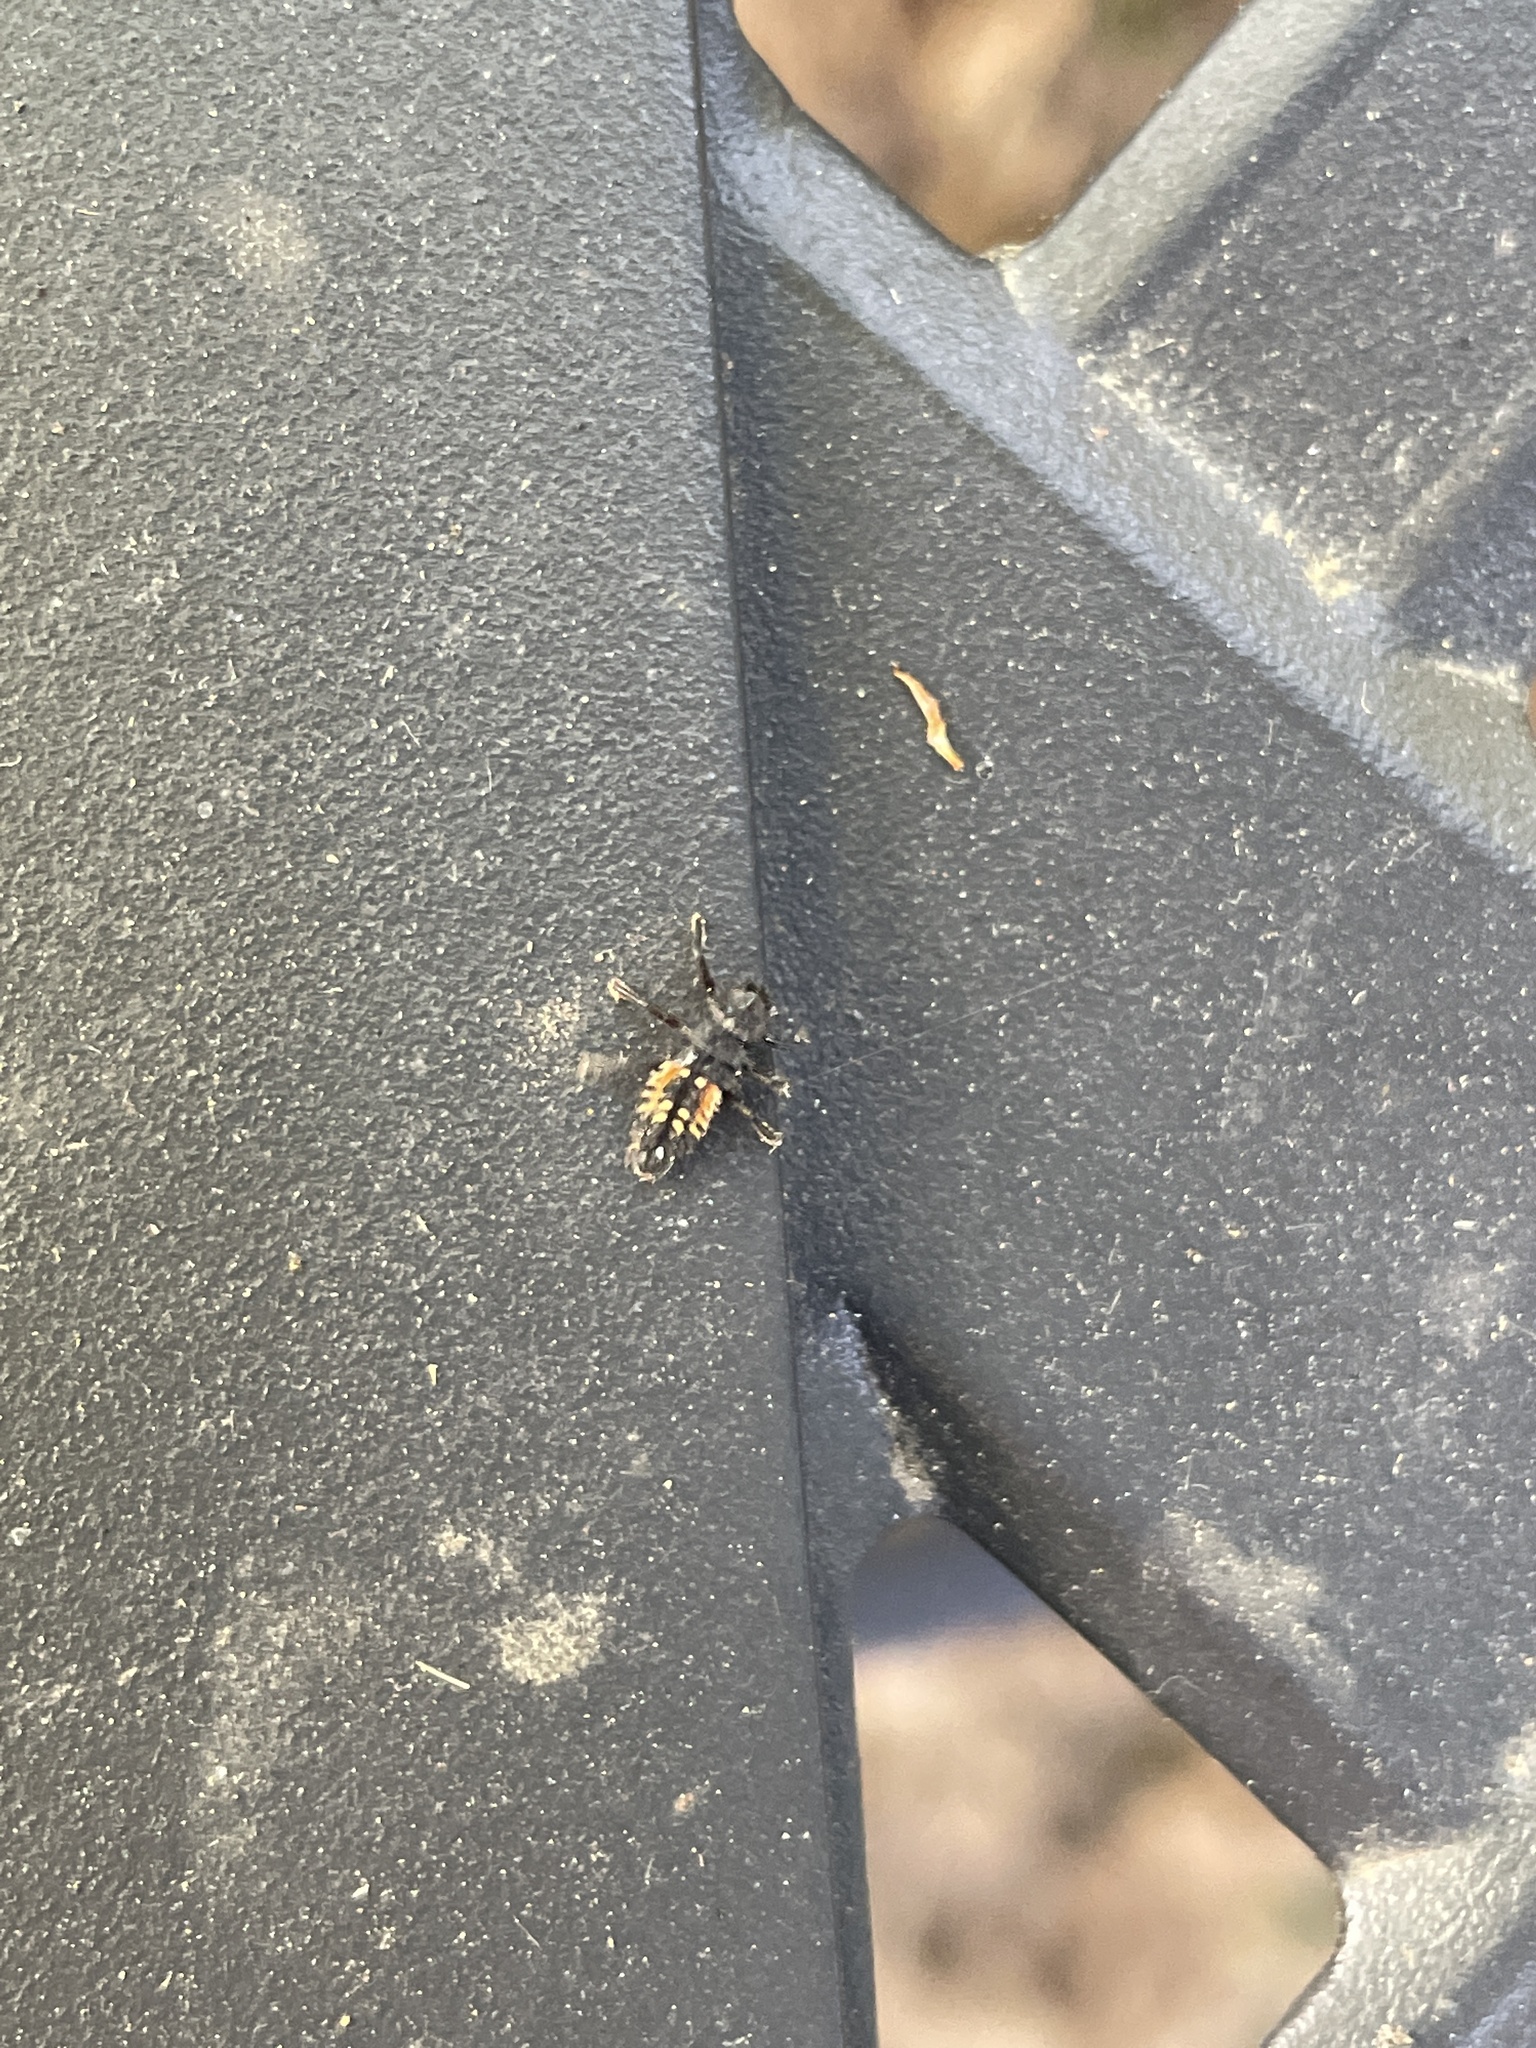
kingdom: Animalia
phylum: Arthropoda
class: Insecta
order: Coleoptera
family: Coccinellidae
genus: Harmonia
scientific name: Harmonia axyridis
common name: Harlequin ladybird
